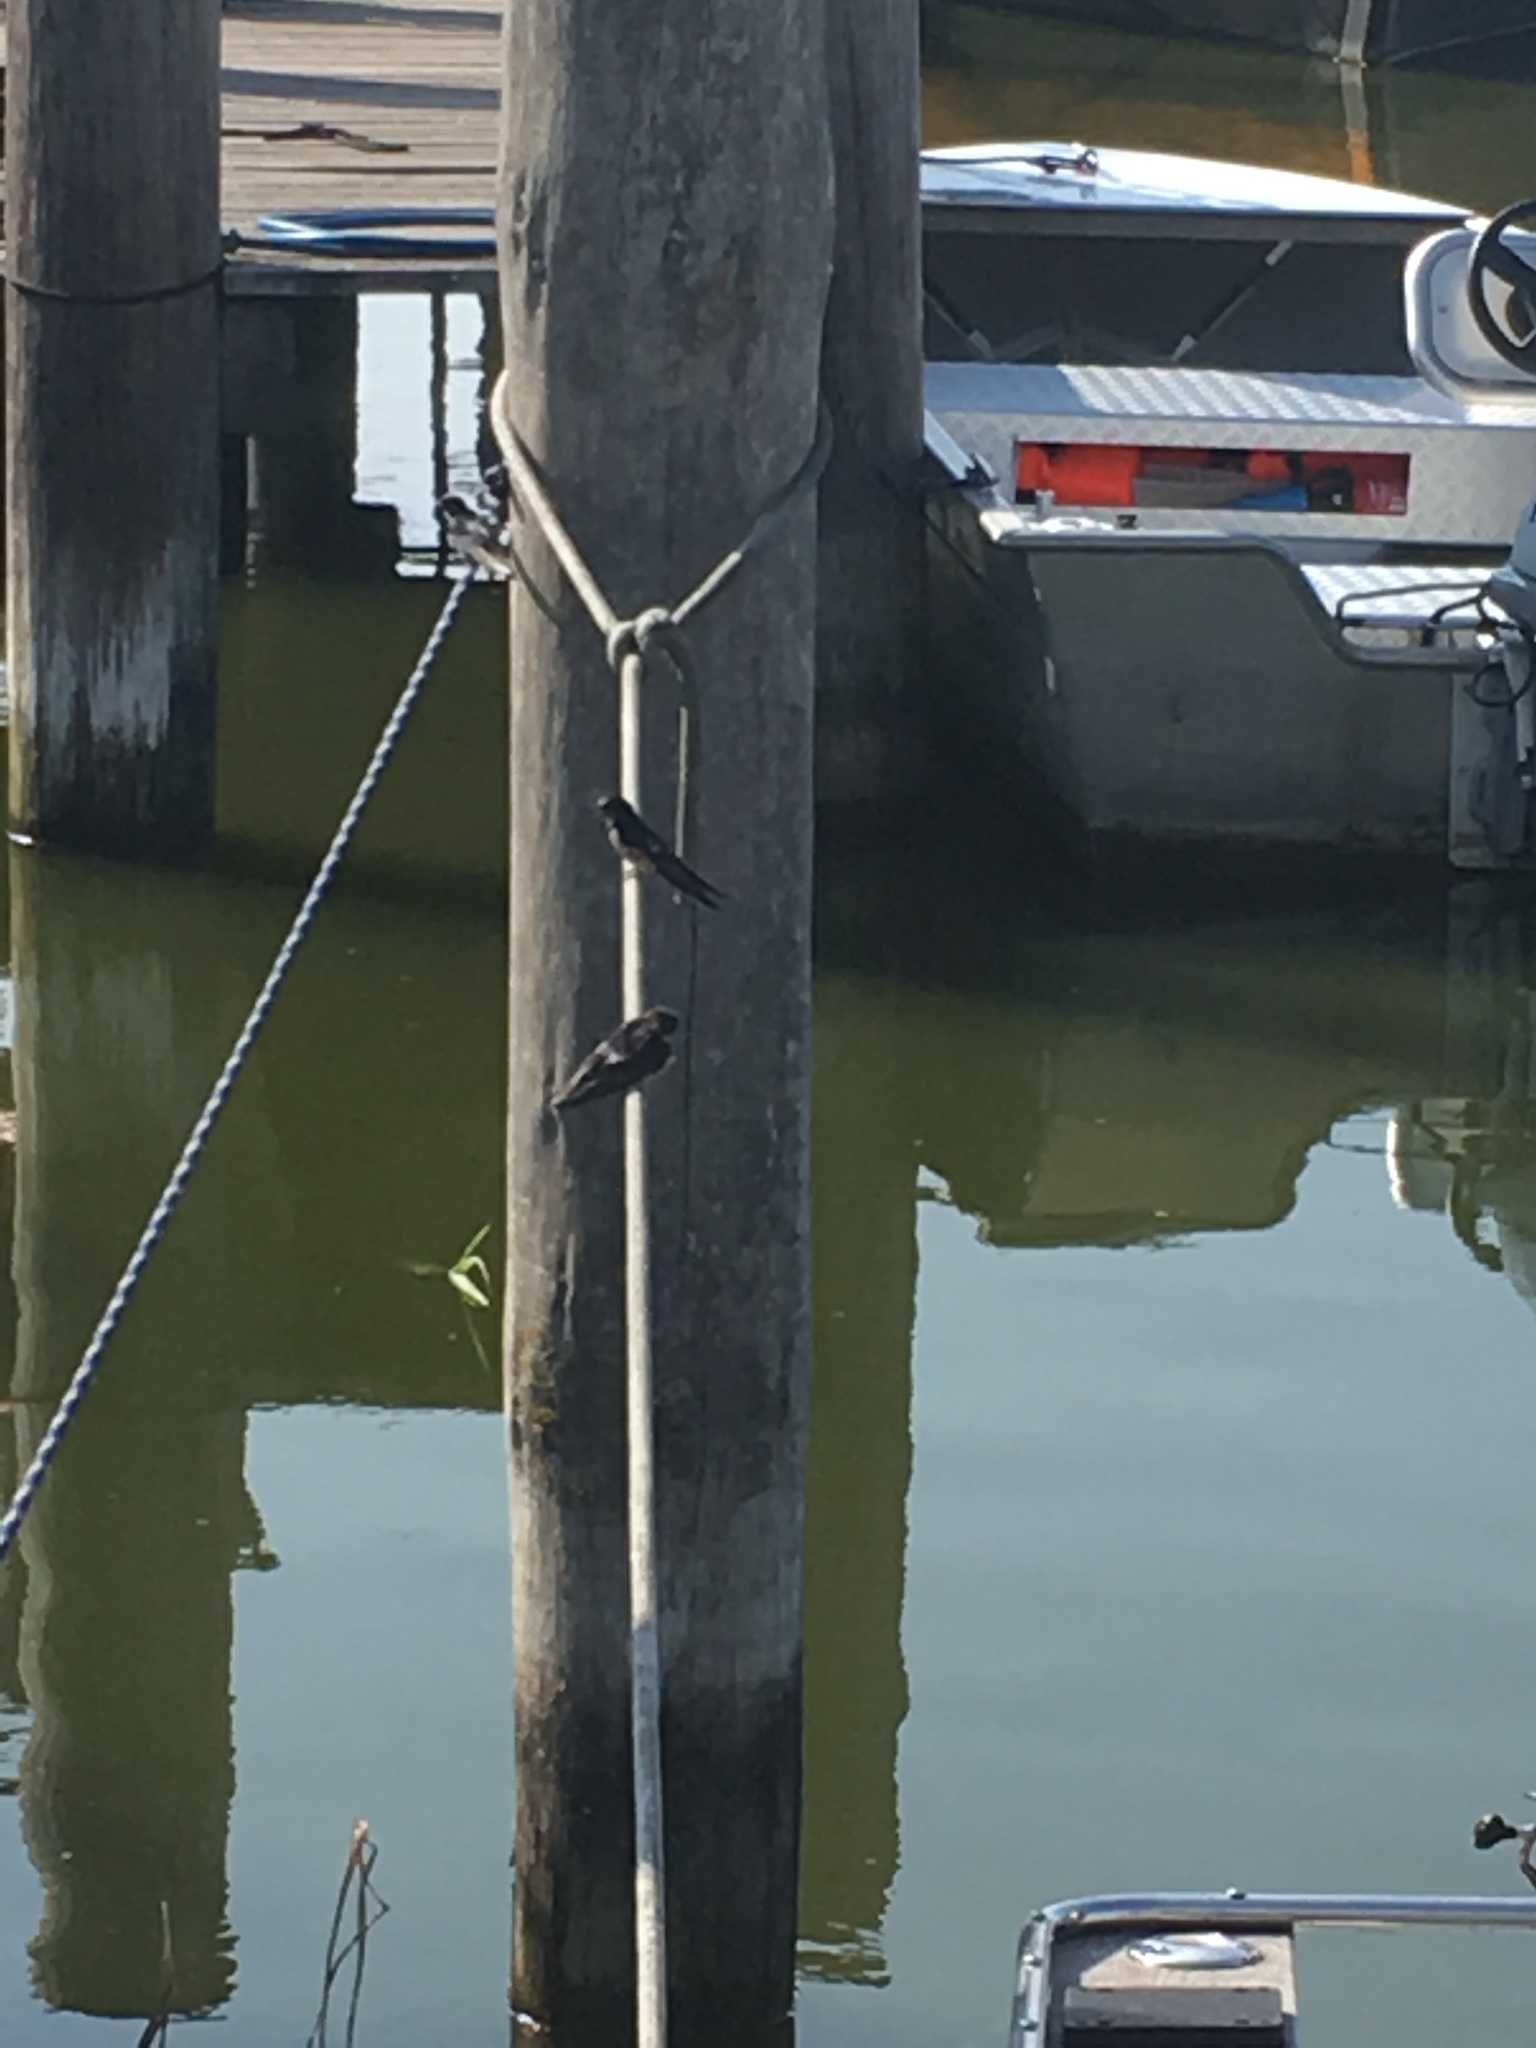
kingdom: Animalia
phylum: Chordata
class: Aves
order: Passeriformes
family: Hirundinidae
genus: Hirundo
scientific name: Hirundo rustica
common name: Barn swallow
